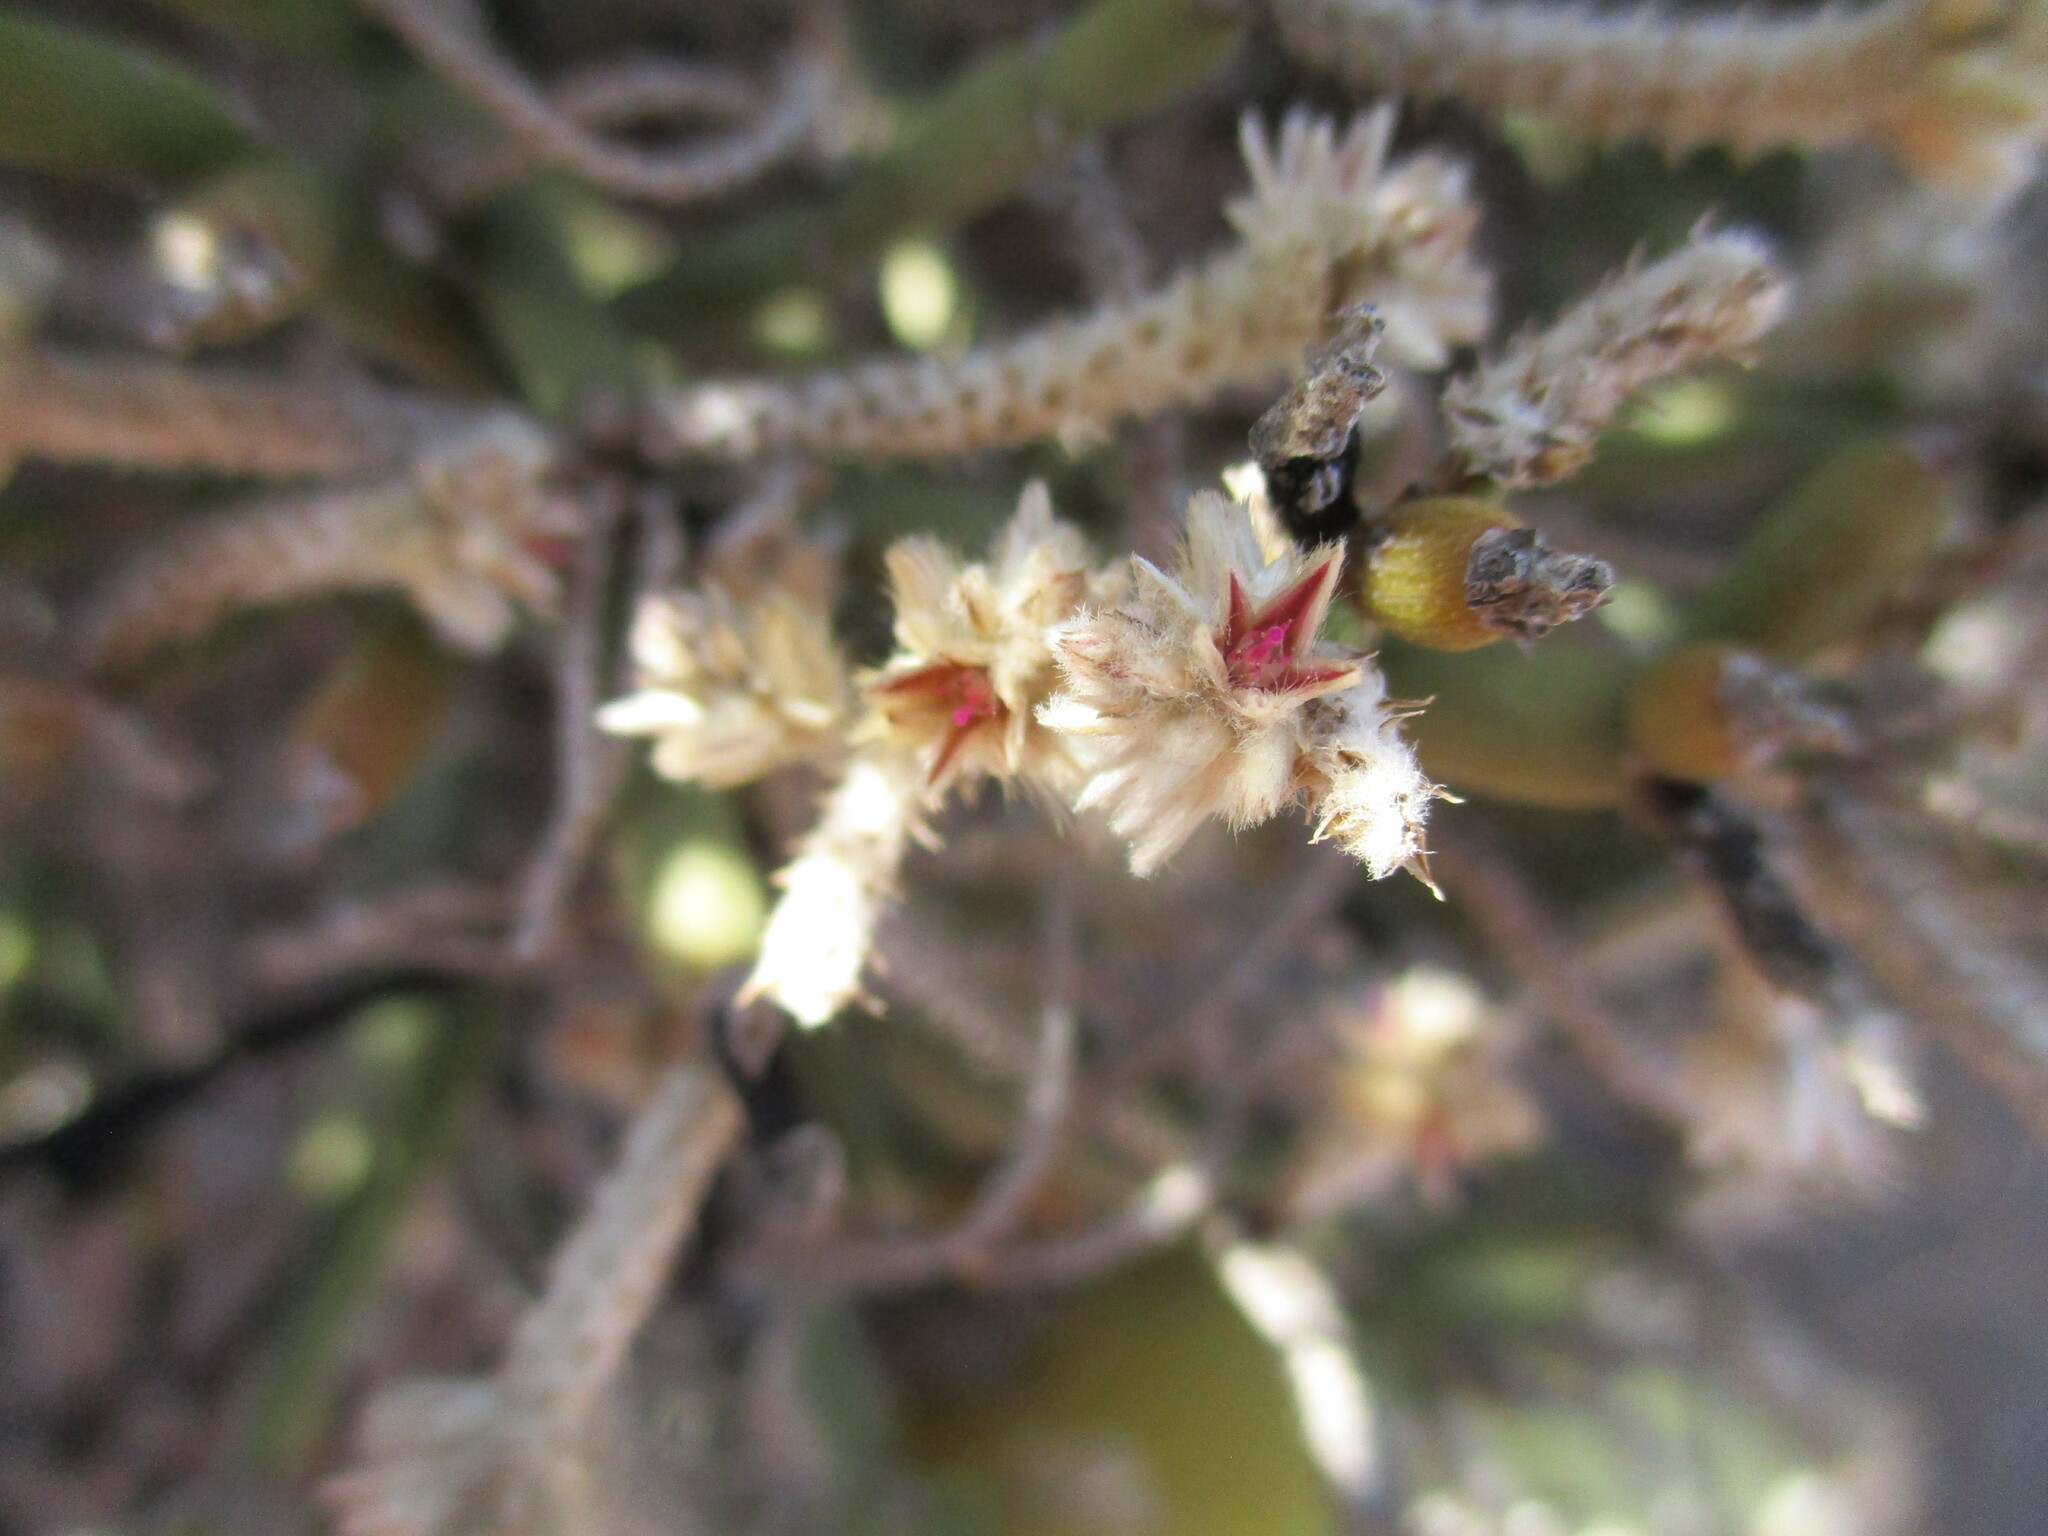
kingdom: Plantae
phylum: Tracheophyta
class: Magnoliopsida
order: Caryophyllales
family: Amaranthaceae
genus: Arthraerva
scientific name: Arthraerva leubnitziae
